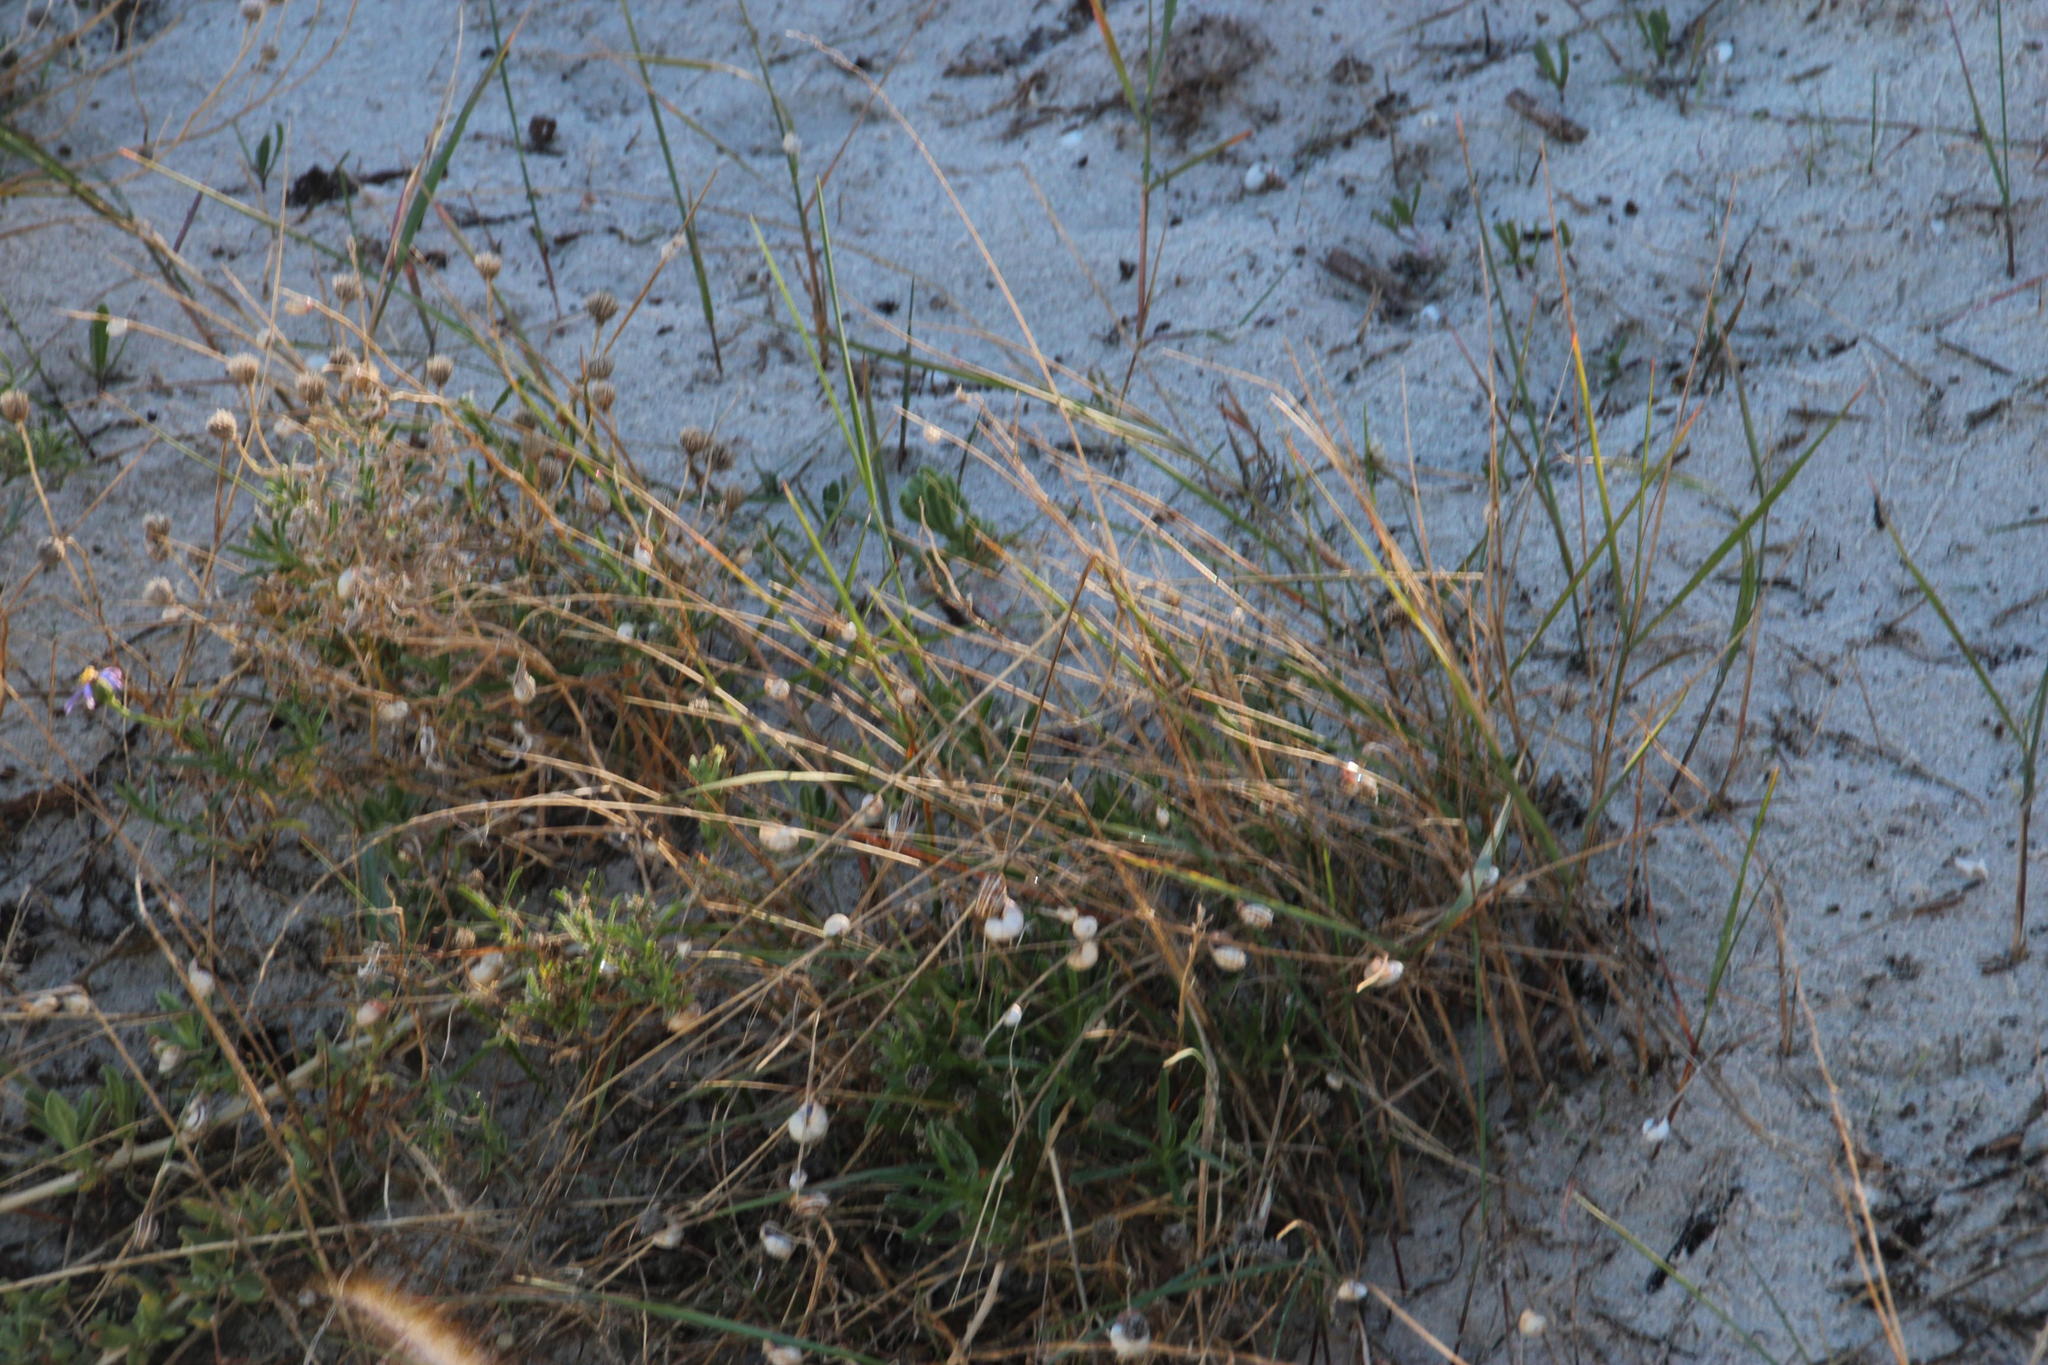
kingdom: Animalia
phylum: Mollusca
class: Gastropoda
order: Stylommatophora
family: Helicidae
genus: Theba
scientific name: Theba pisana
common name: White snail
